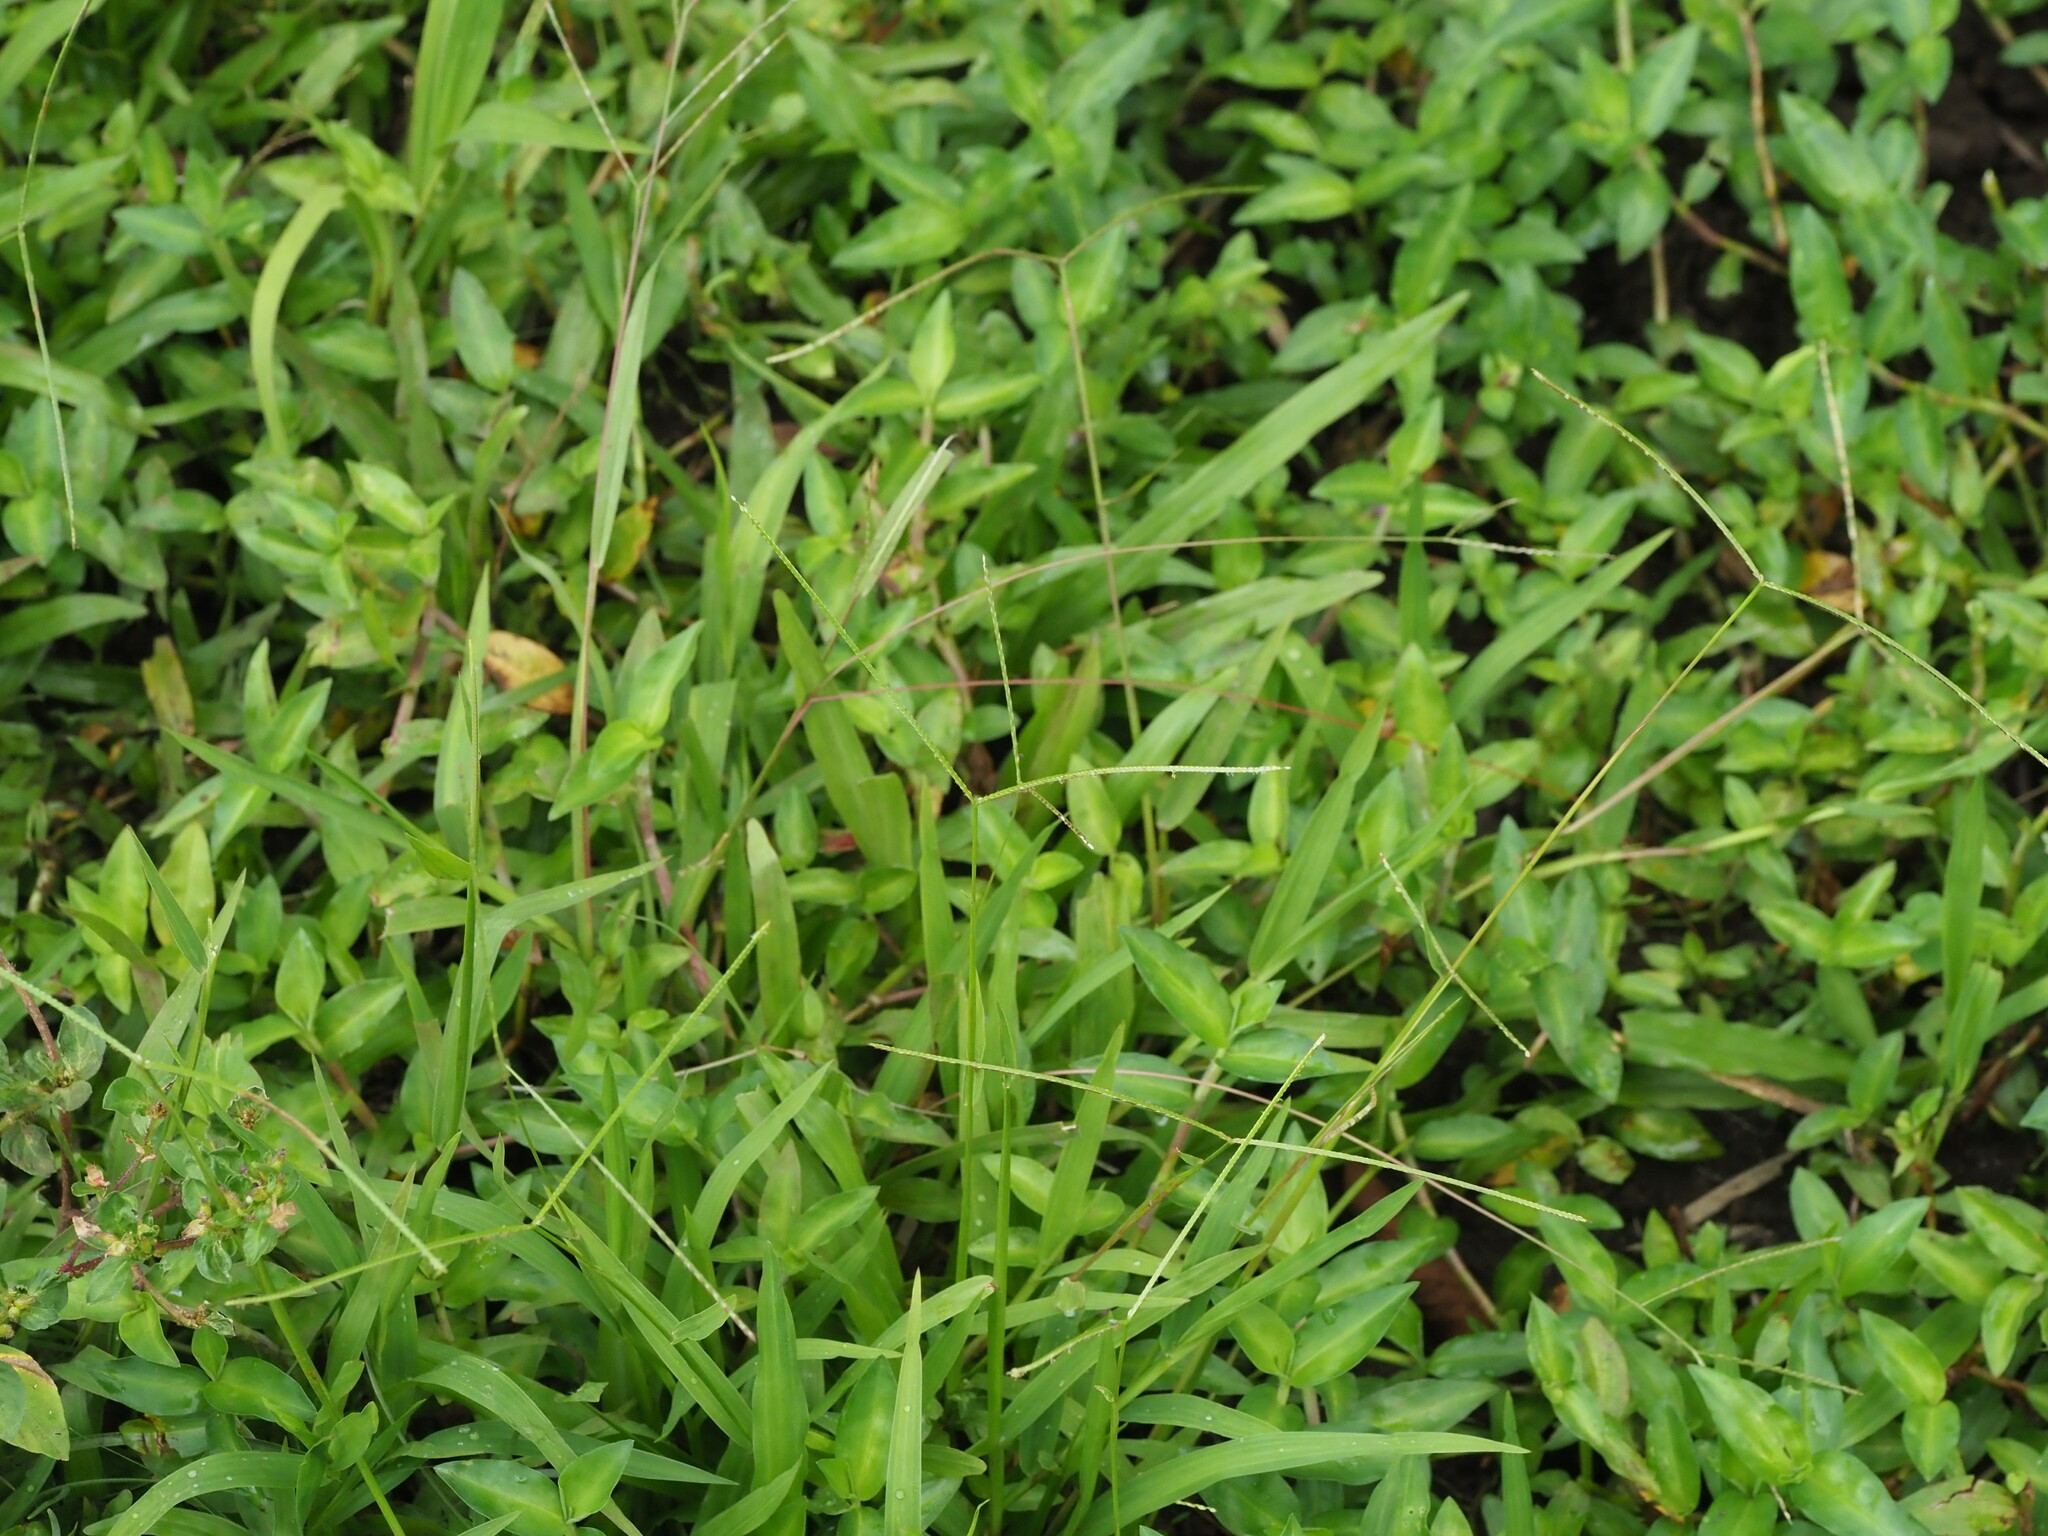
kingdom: Plantae
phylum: Tracheophyta
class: Liliopsida
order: Poales
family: Poaceae
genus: Paspalum
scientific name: Paspalum conjugatum
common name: Hilograss
